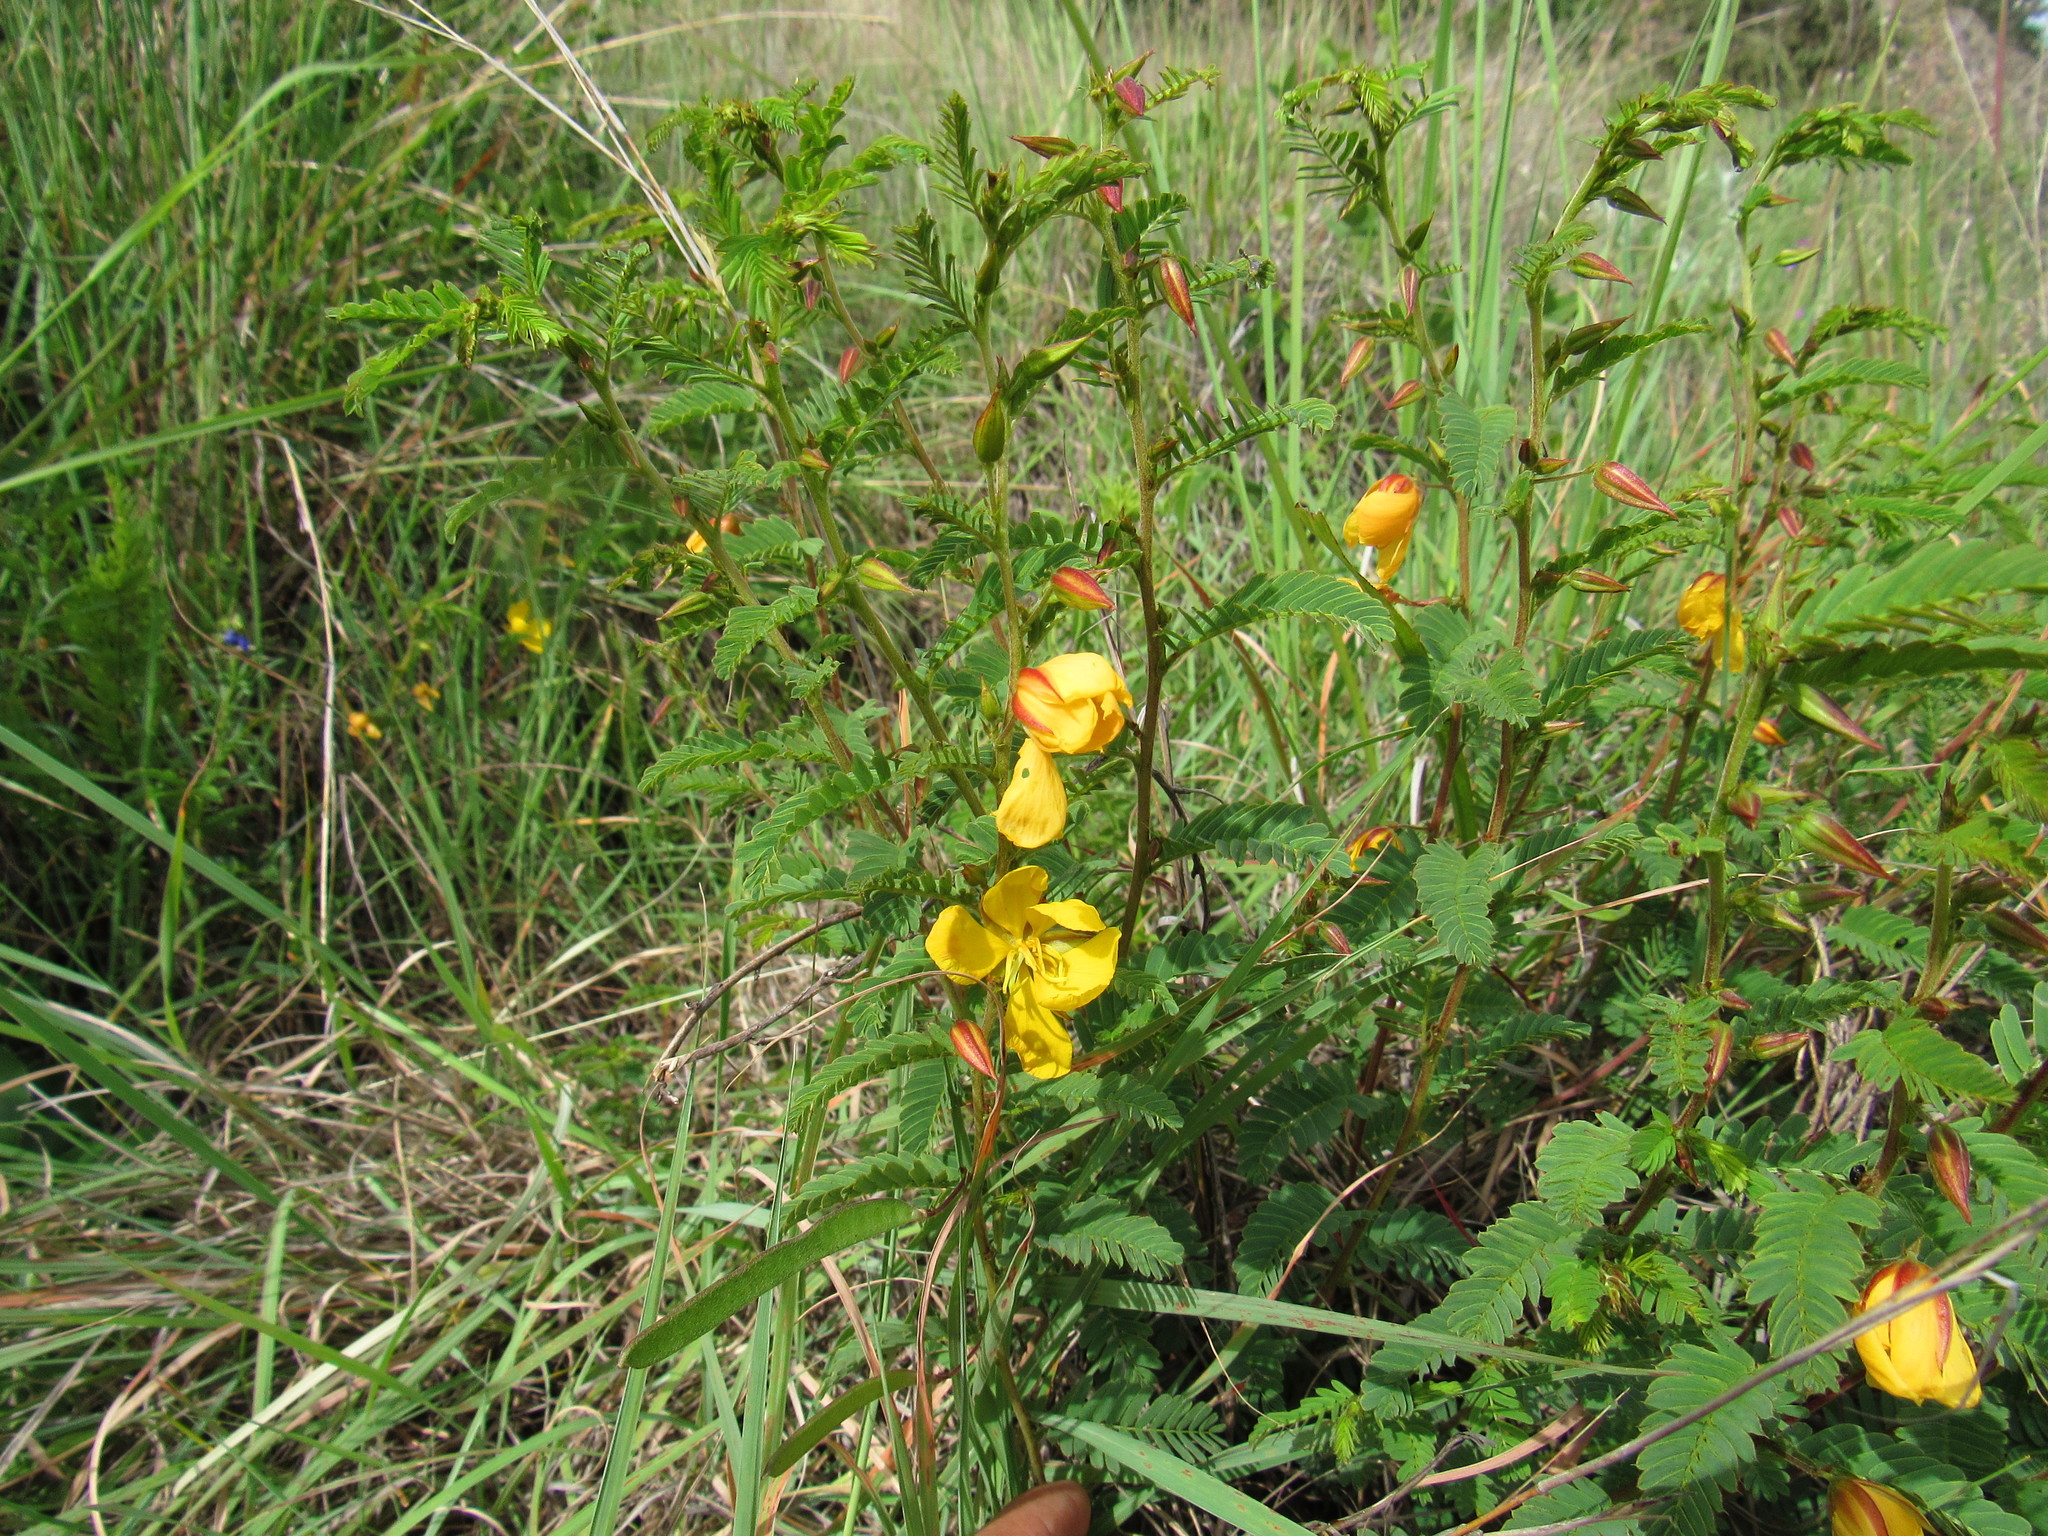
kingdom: Plantae
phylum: Tracheophyta
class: Magnoliopsida
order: Fabales
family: Fabaceae
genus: Chamaecrista
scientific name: Chamaecrista rufa
